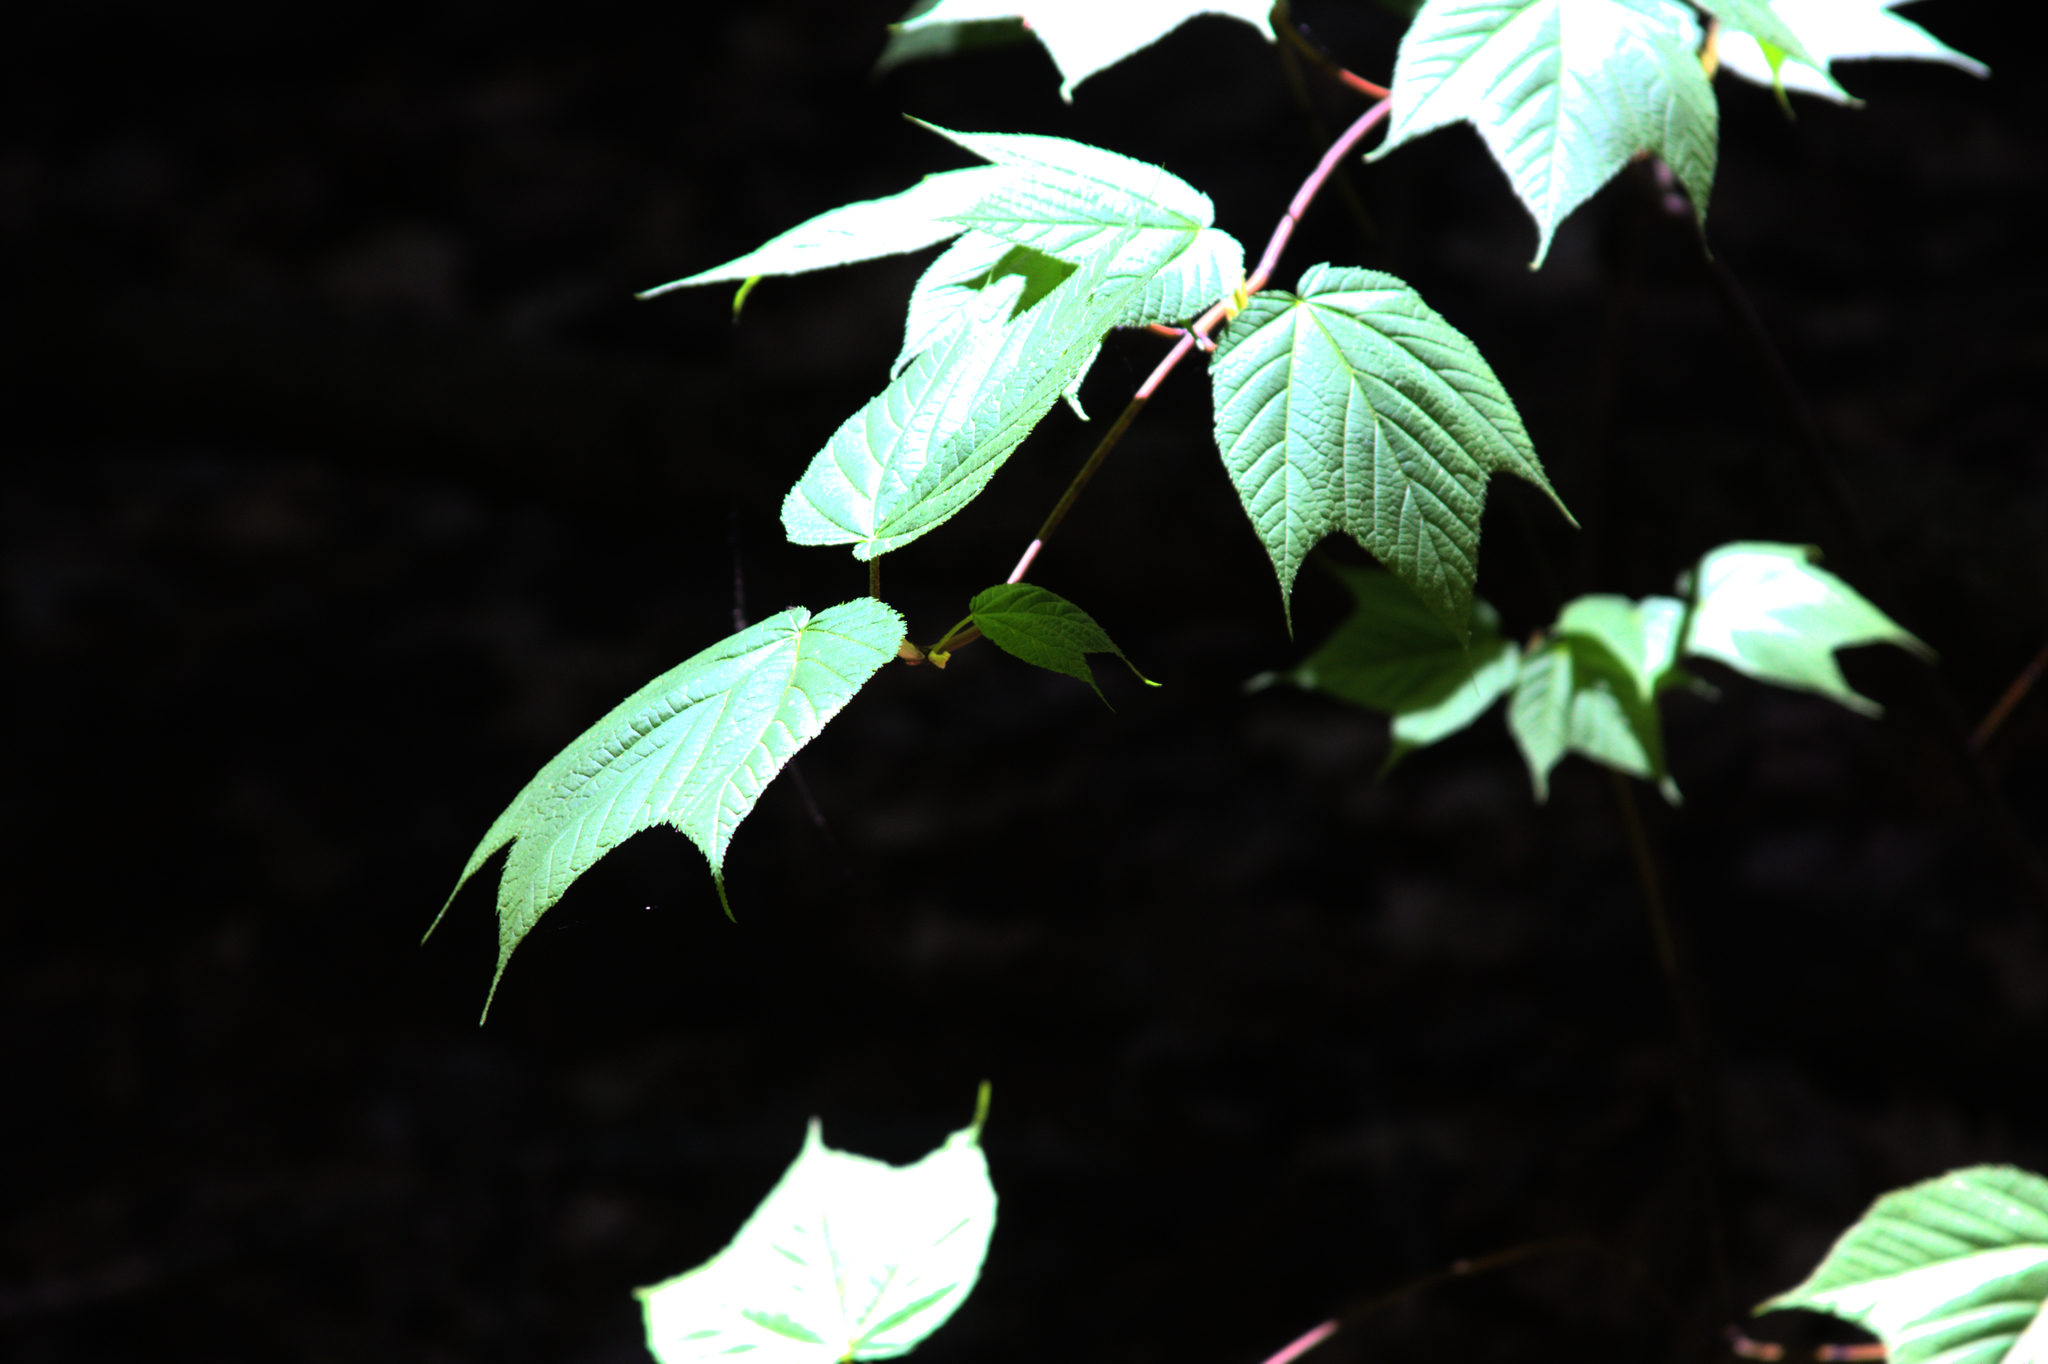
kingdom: Plantae
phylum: Tracheophyta
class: Magnoliopsida
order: Sapindales
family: Sapindaceae
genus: Acer
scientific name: Acer pensylvanicum
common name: Moosewood
